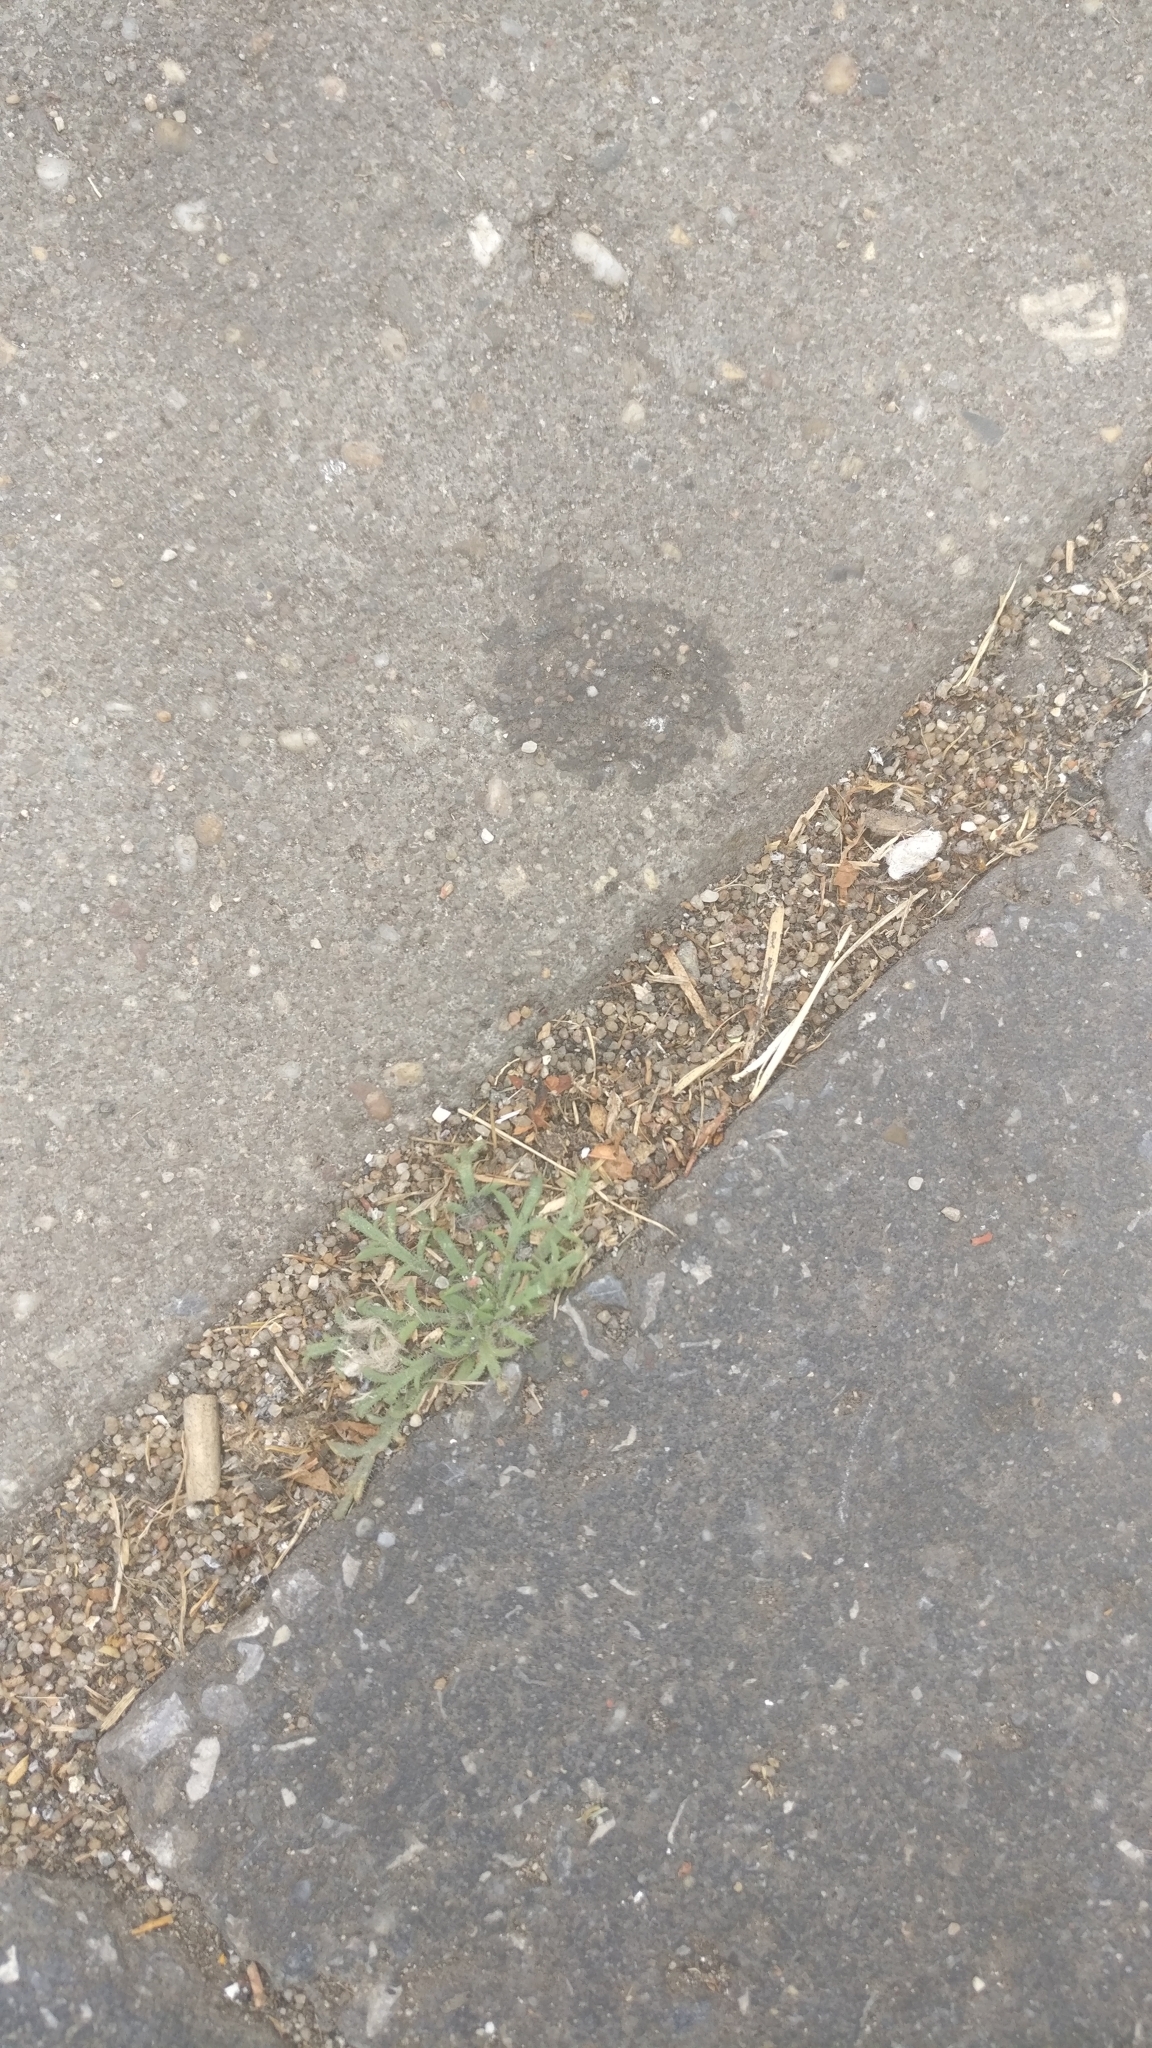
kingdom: Plantae
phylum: Tracheophyta
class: Magnoliopsida
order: Lamiales
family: Plantaginaceae
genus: Plantago
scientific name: Plantago coronopus
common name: Buck's-horn plantain
